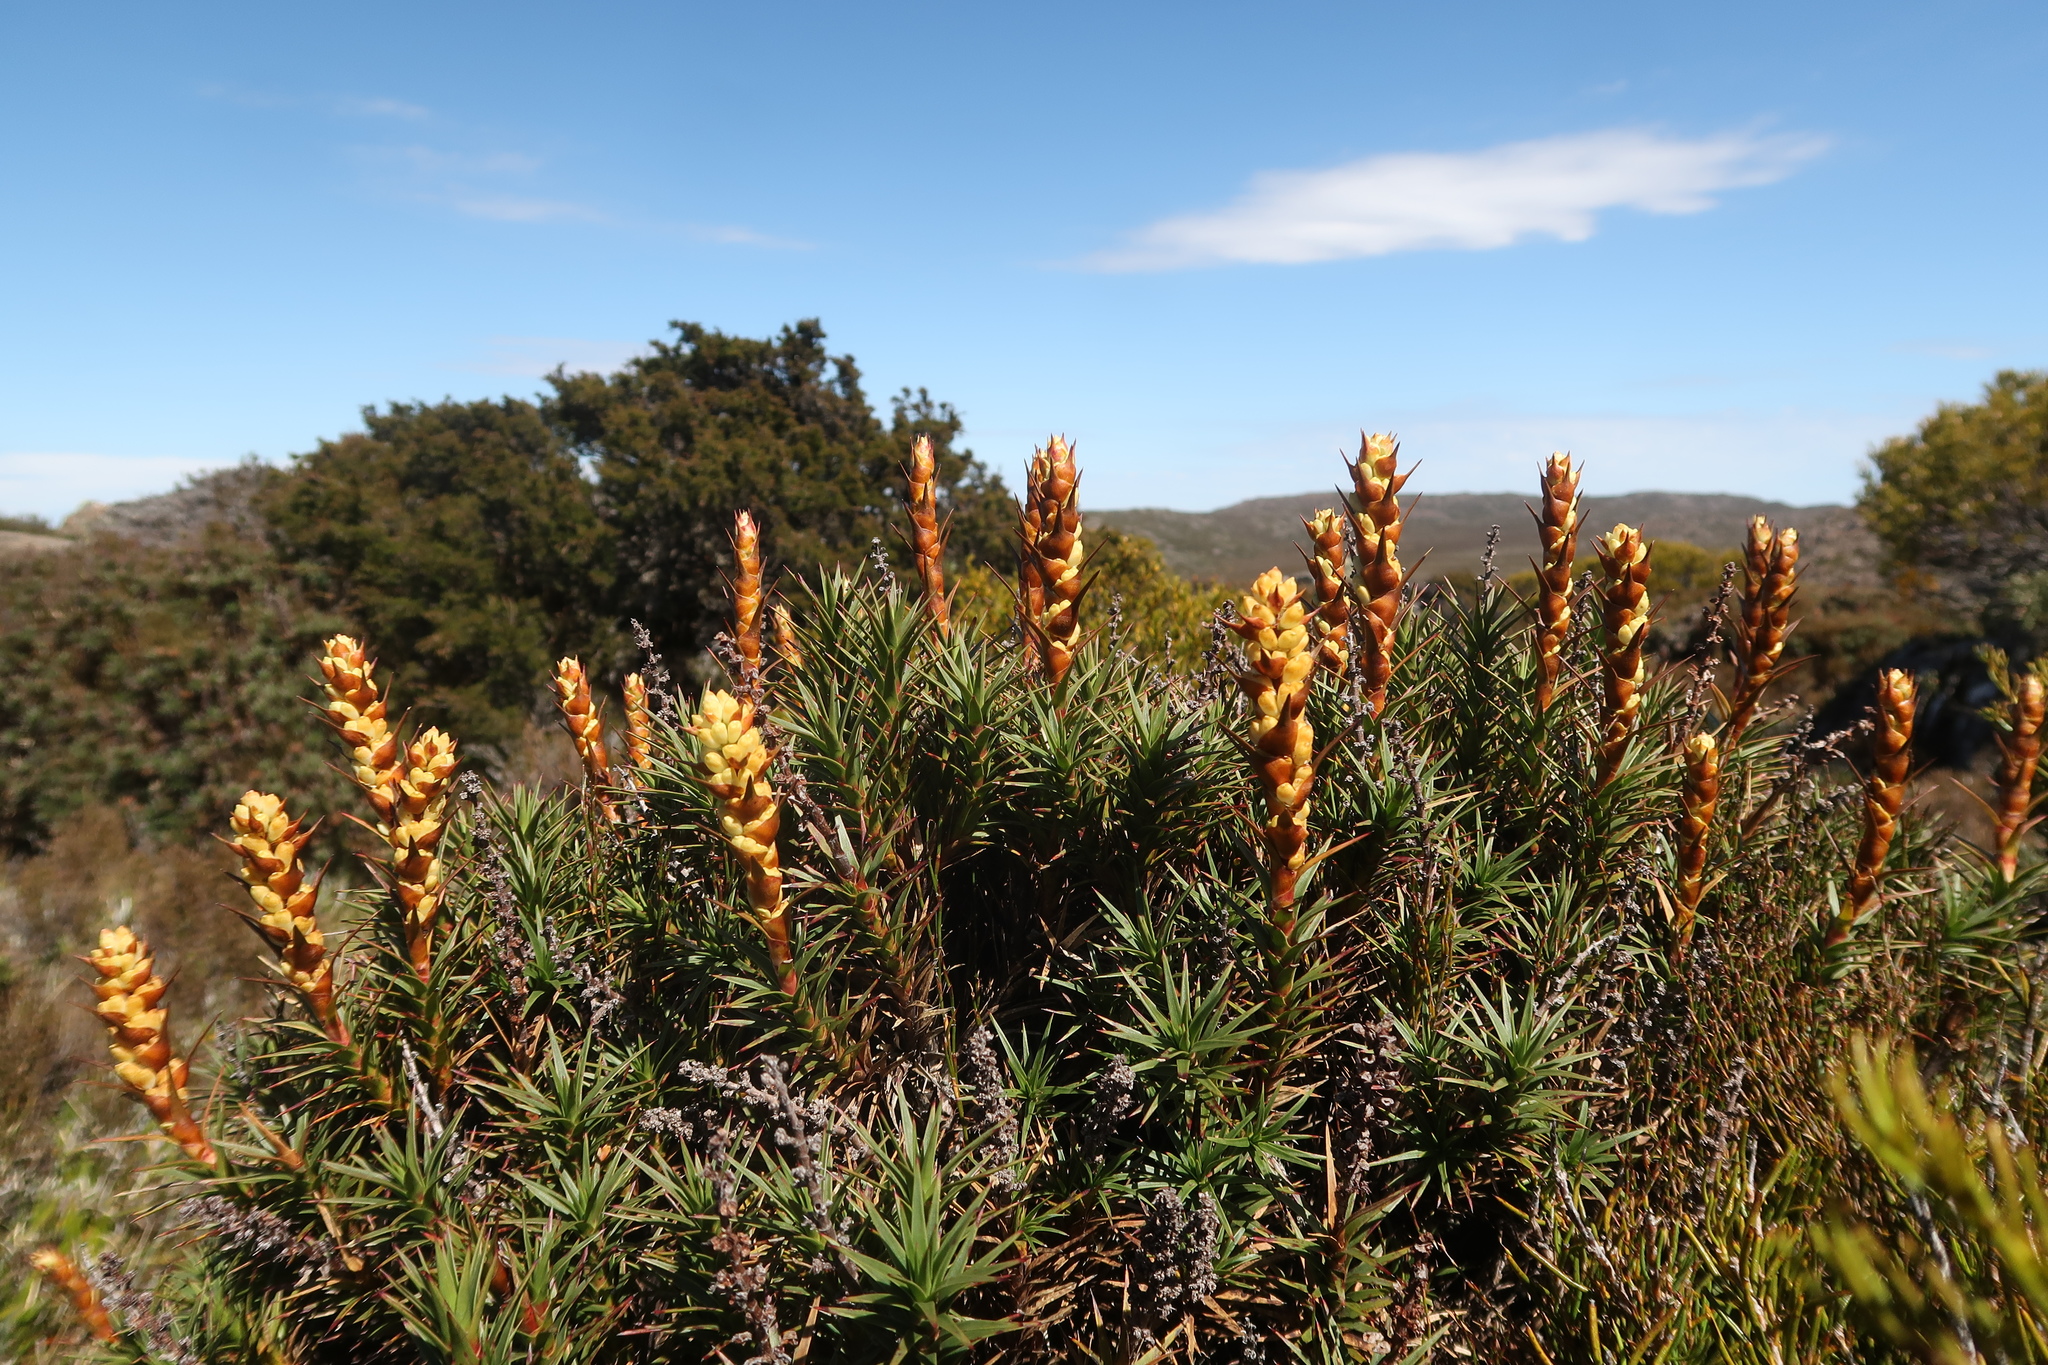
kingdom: Plantae
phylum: Tracheophyta
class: Magnoliopsida
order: Ericales
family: Ericaceae
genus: Dracophyllum
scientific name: Dracophyllum persistentifolium
